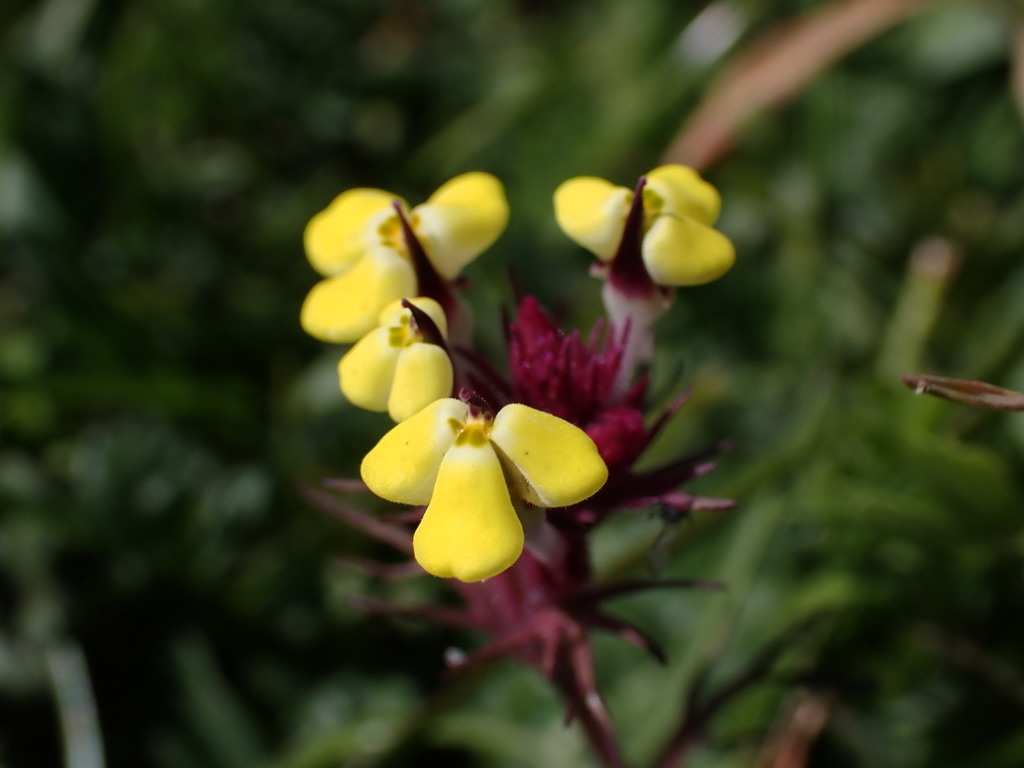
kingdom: Plantae
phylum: Tracheophyta
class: Magnoliopsida
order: Lamiales
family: Orobanchaceae
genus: Triphysaria
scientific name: Triphysaria eriantha
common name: Johnny-tuck
